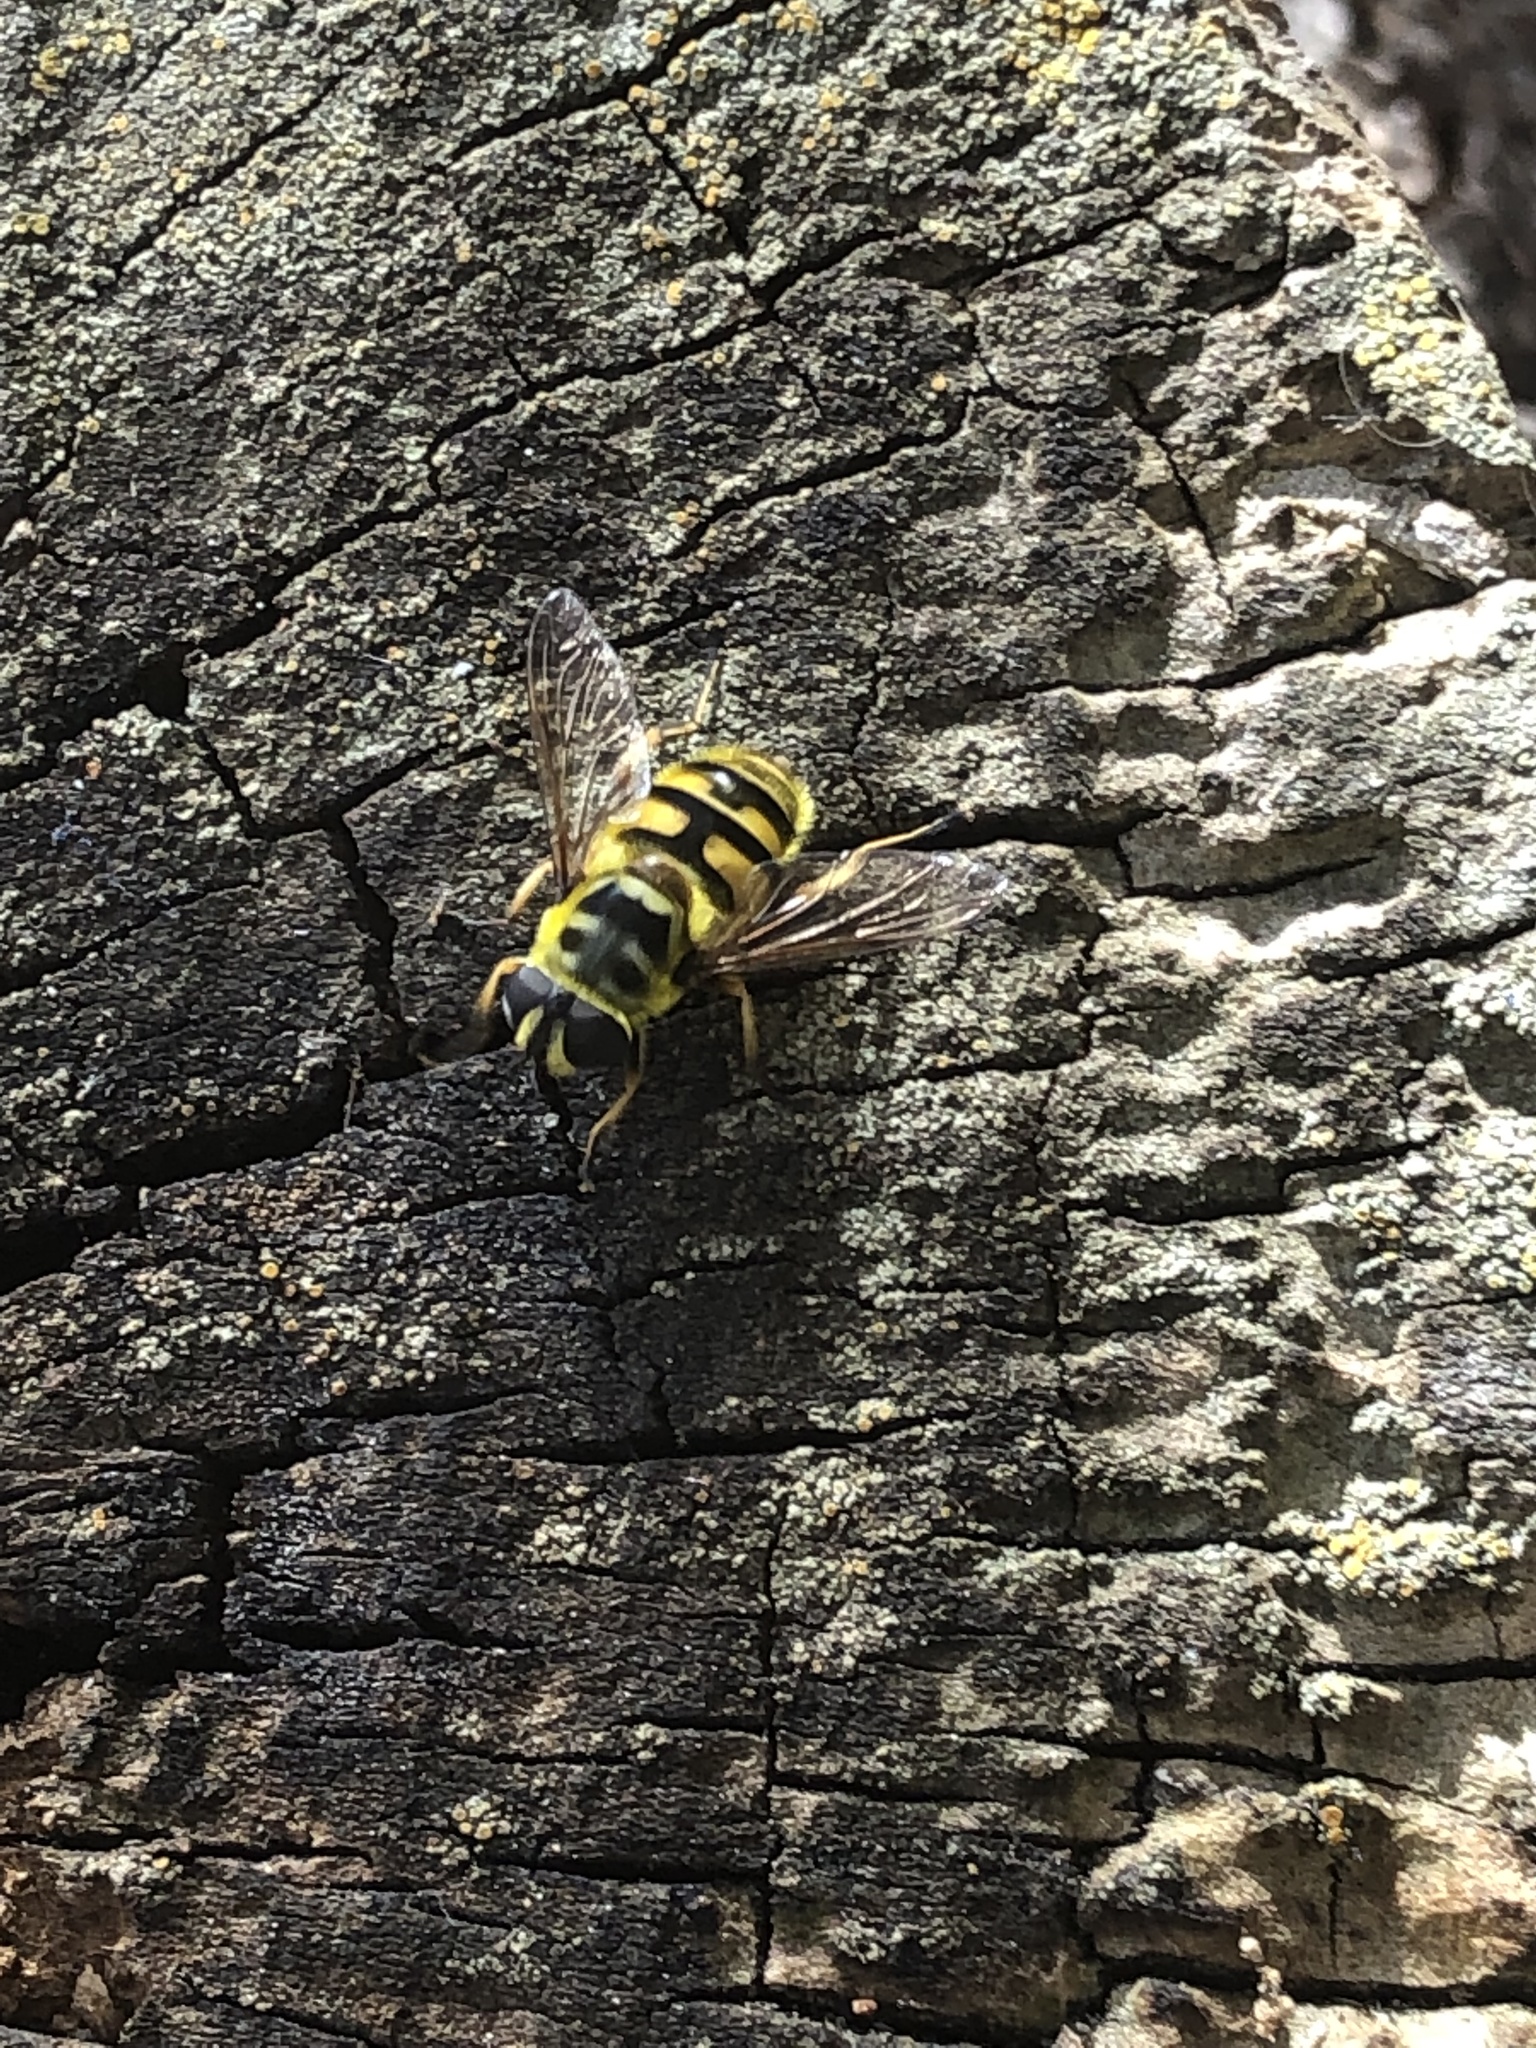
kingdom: Animalia
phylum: Arthropoda
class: Insecta
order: Diptera
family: Syrphidae
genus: Myathropa
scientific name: Myathropa florea
